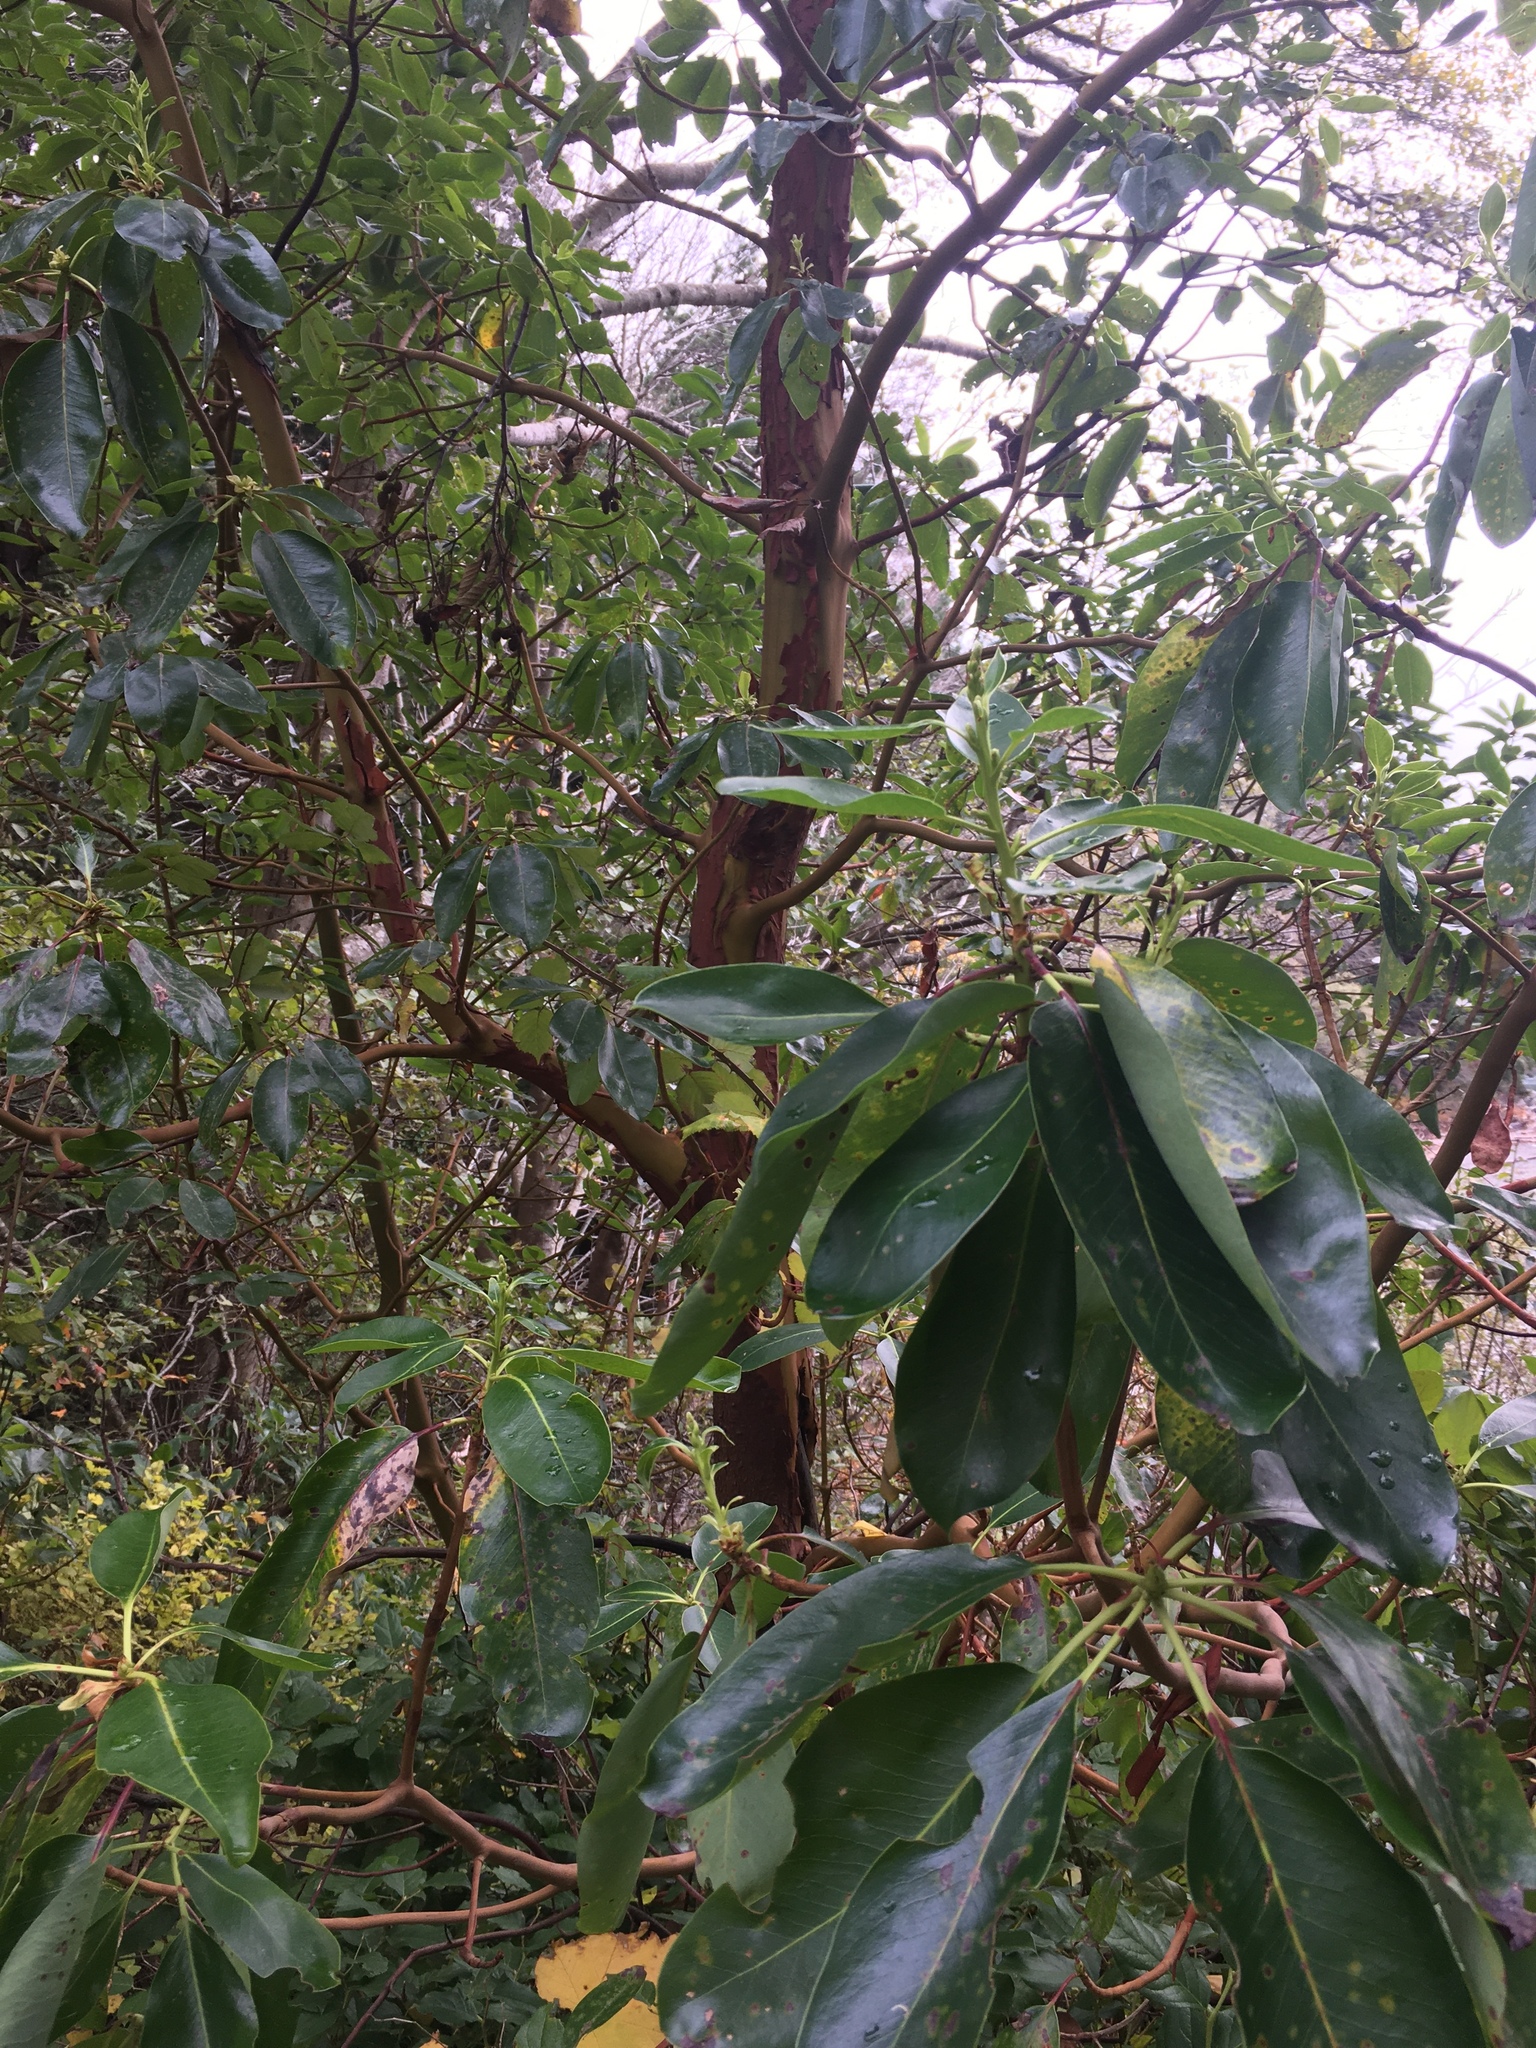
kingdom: Plantae
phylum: Tracheophyta
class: Magnoliopsida
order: Ericales
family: Ericaceae
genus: Arbutus
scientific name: Arbutus menziesii
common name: Pacific madrone
